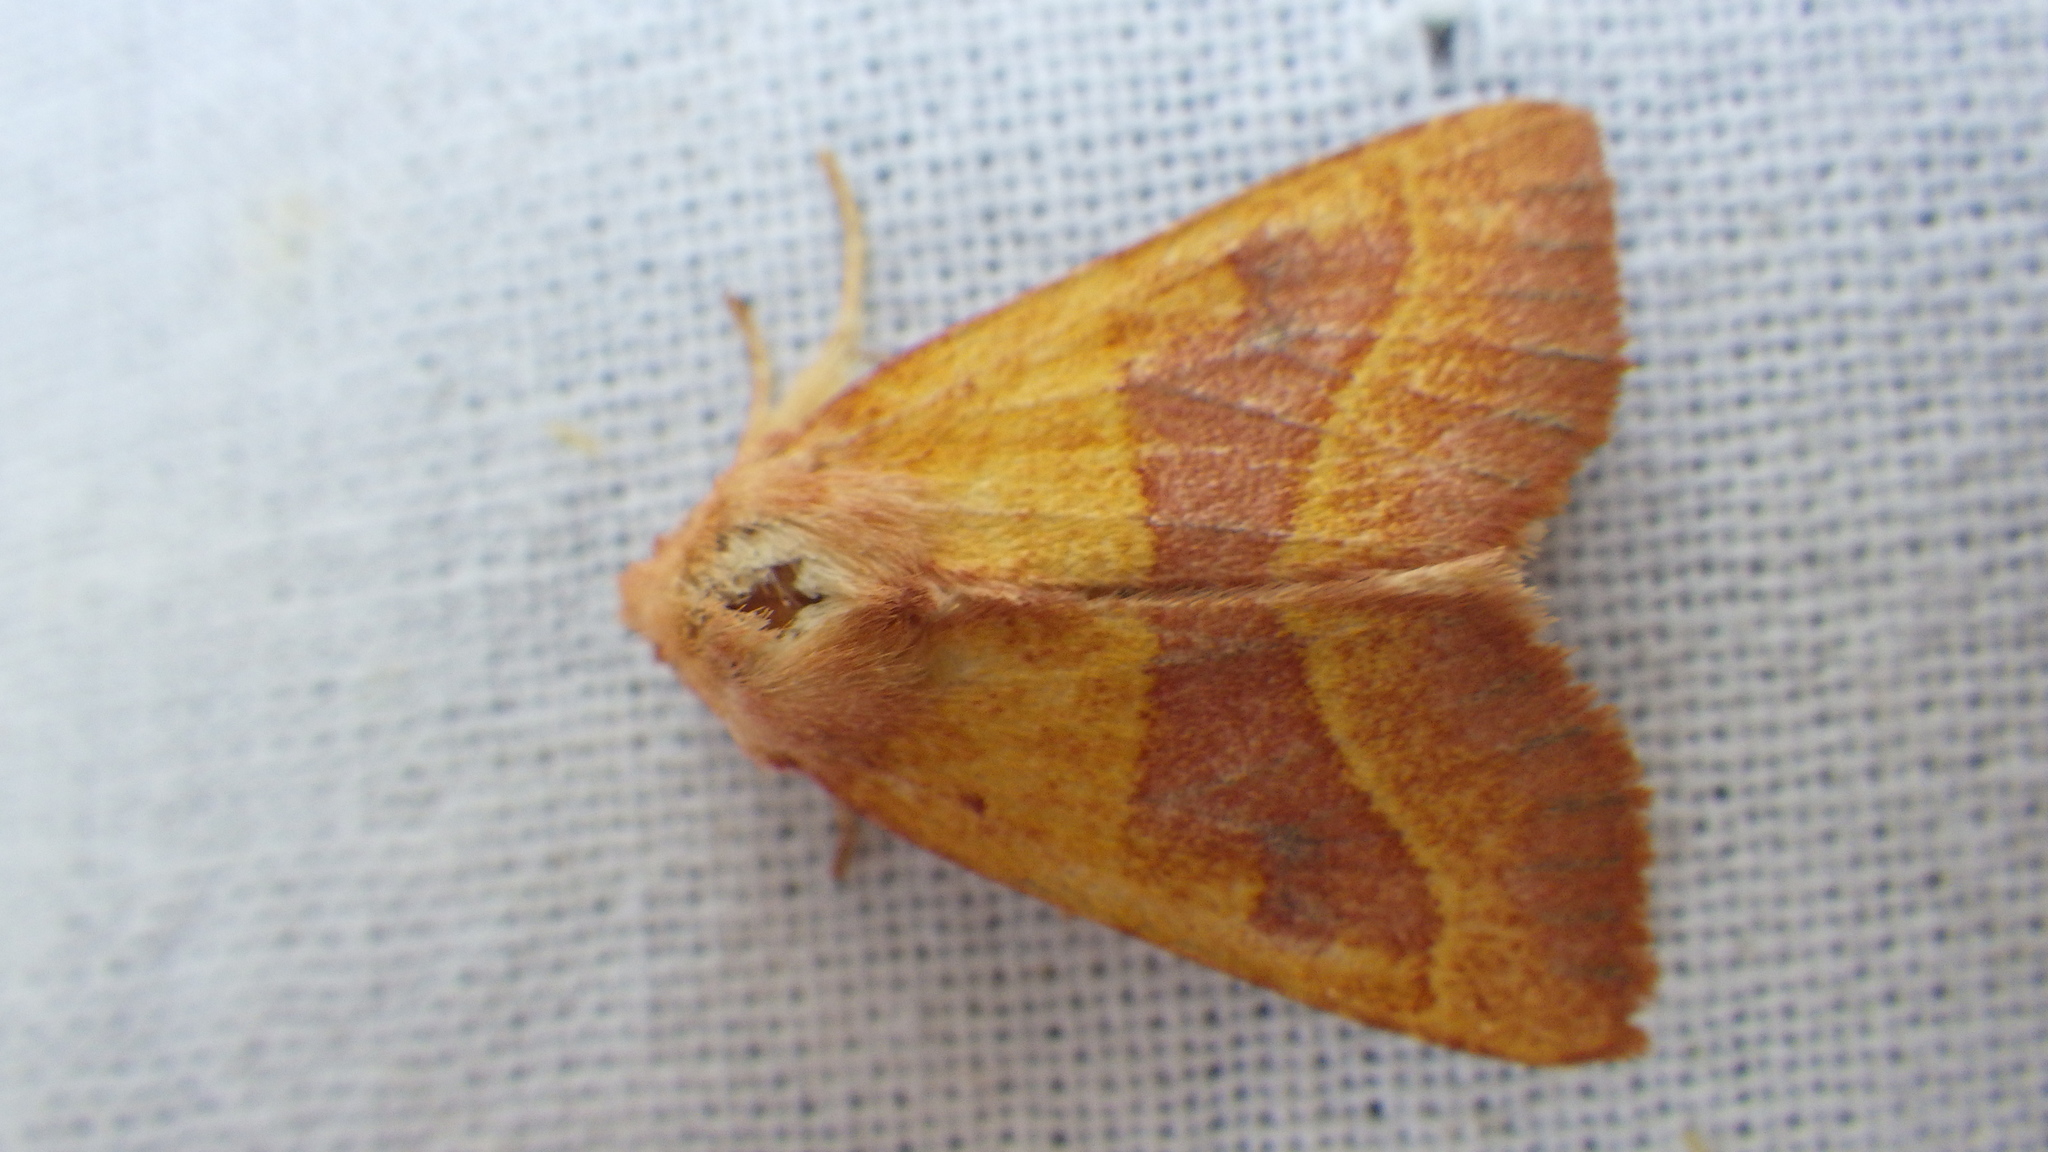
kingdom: Animalia
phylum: Arthropoda
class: Insecta
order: Lepidoptera
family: Noctuidae
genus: Atethmia
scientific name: Atethmia centrago
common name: Centre-barred sallow
